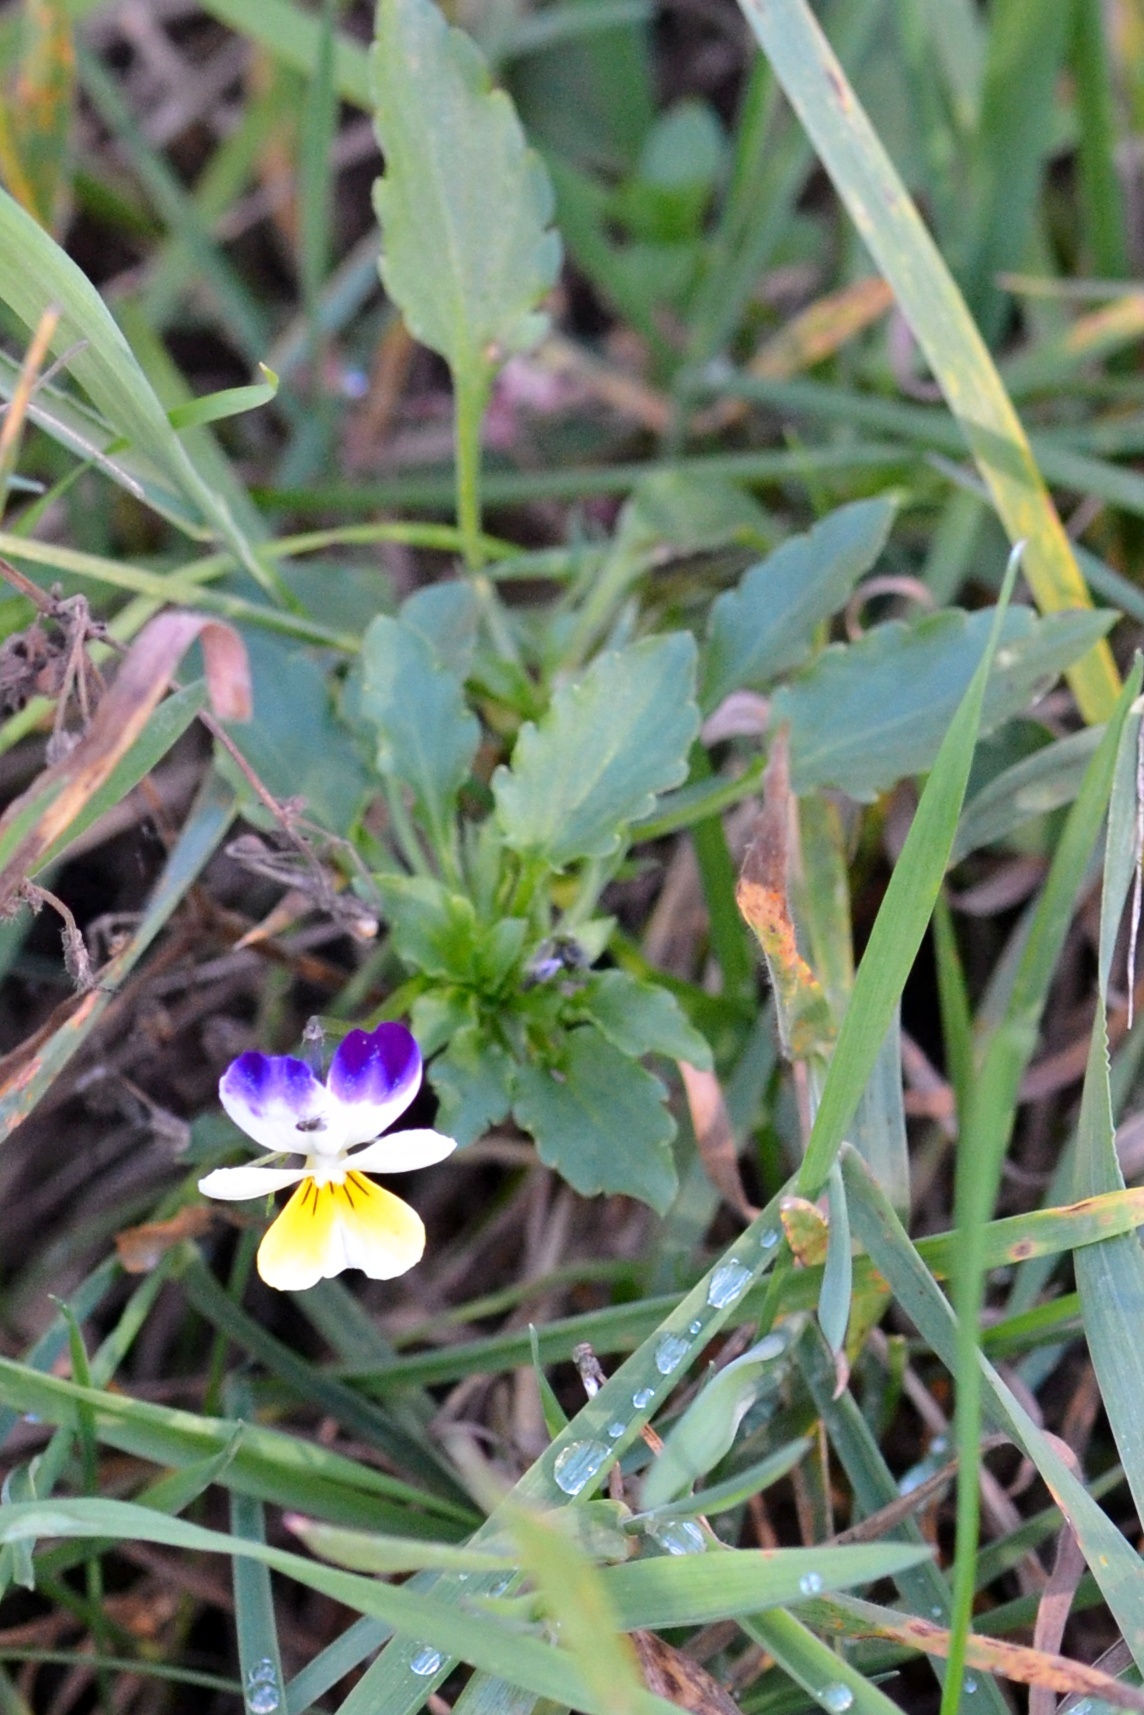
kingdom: Plantae
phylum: Tracheophyta
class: Magnoliopsida
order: Malpighiales
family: Violaceae
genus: Viola
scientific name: Viola tricolor
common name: Pansy
